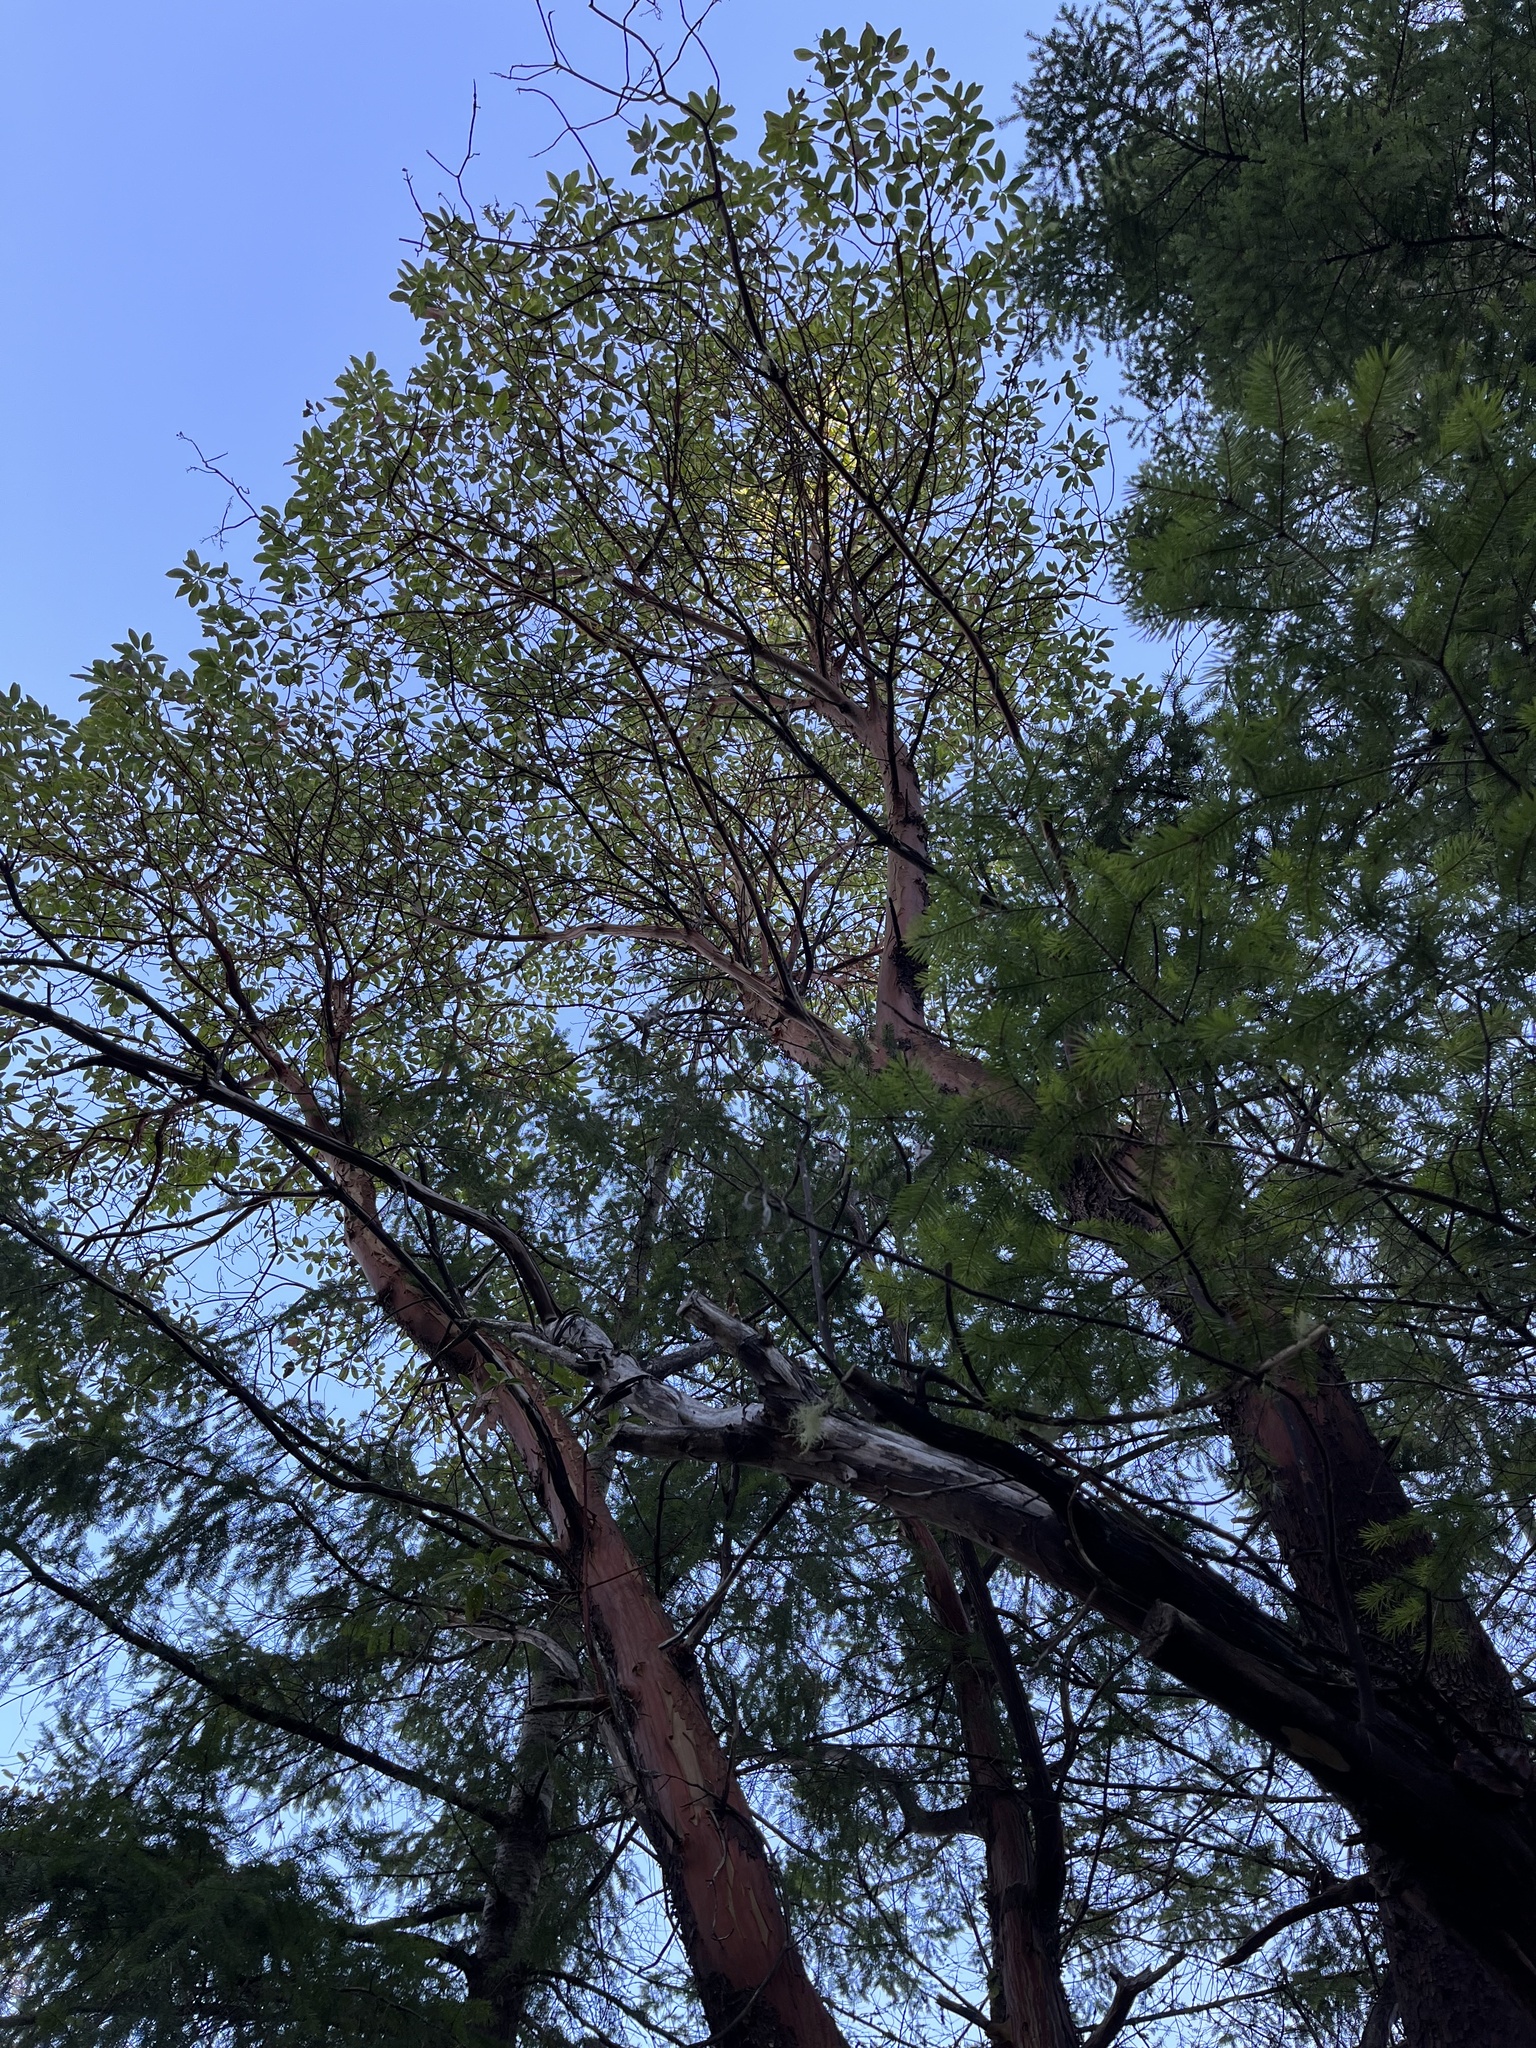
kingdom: Plantae
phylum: Tracheophyta
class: Magnoliopsida
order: Ericales
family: Ericaceae
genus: Arbutus
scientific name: Arbutus menziesii
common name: Pacific madrone
